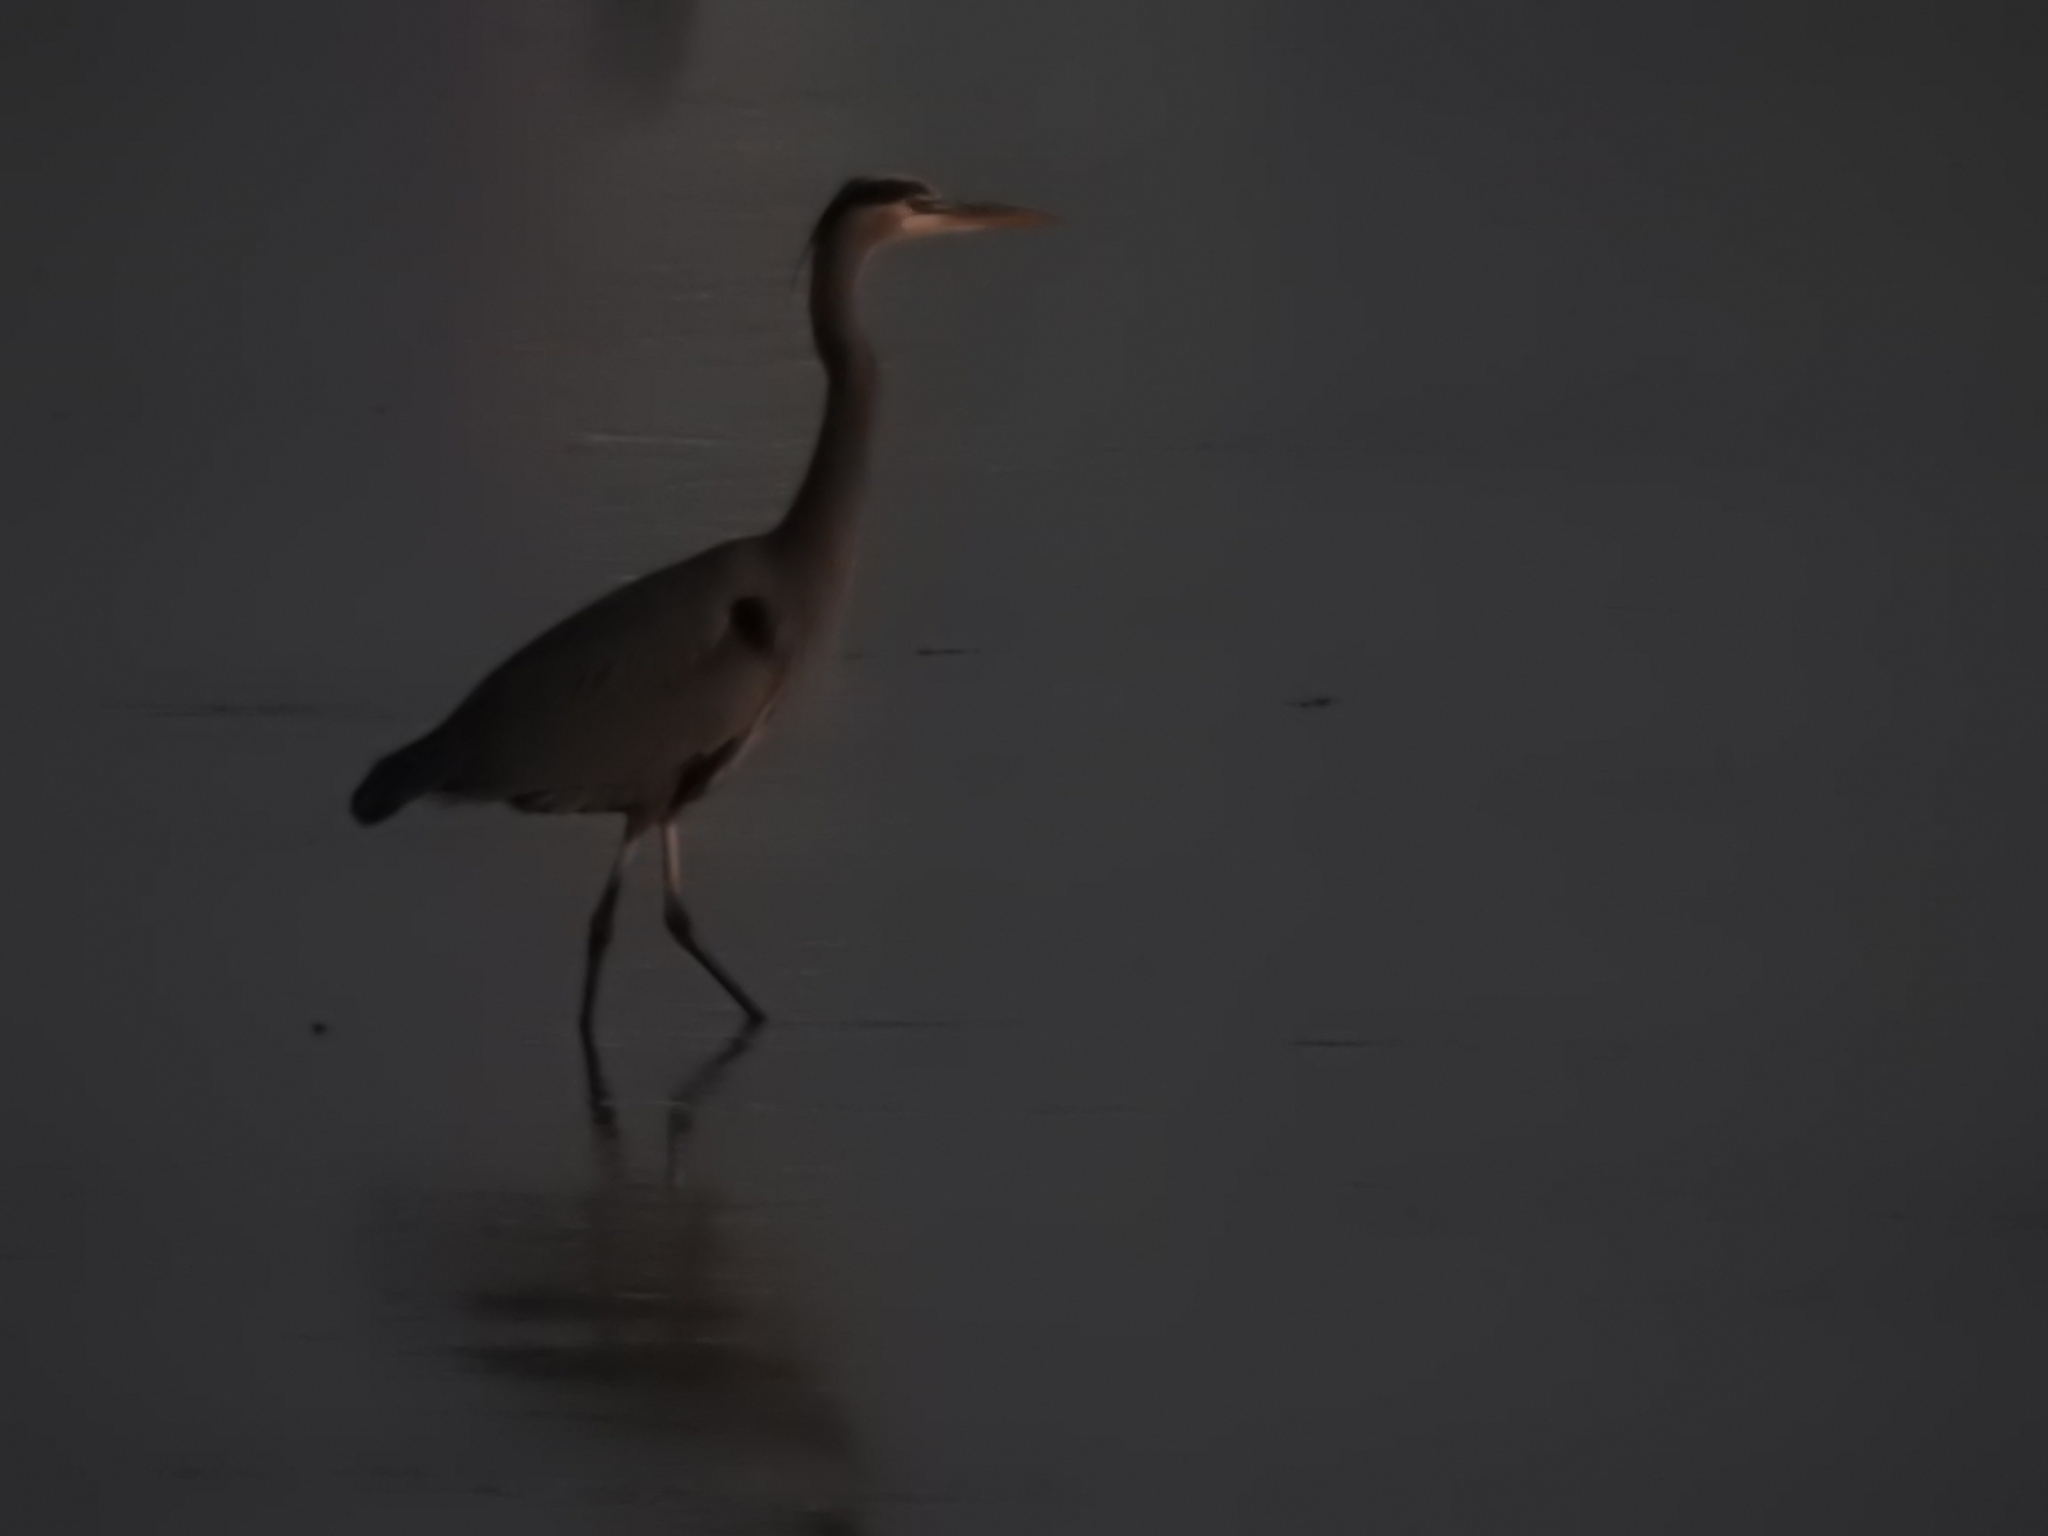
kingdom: Animalia
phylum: Chordata
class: Aves
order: Pelecaniformes
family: Ardeidae
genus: Ardea
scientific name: Ardea herodias
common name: Great blue heron
